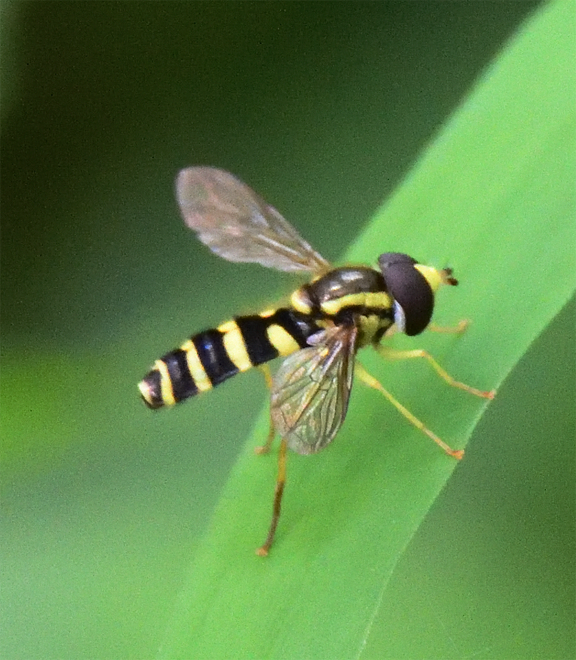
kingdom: Animalia
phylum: Arthropoda
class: Insecta
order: Diptera
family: Syrphidae
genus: Philhelius
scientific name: Philhelius flavipes
